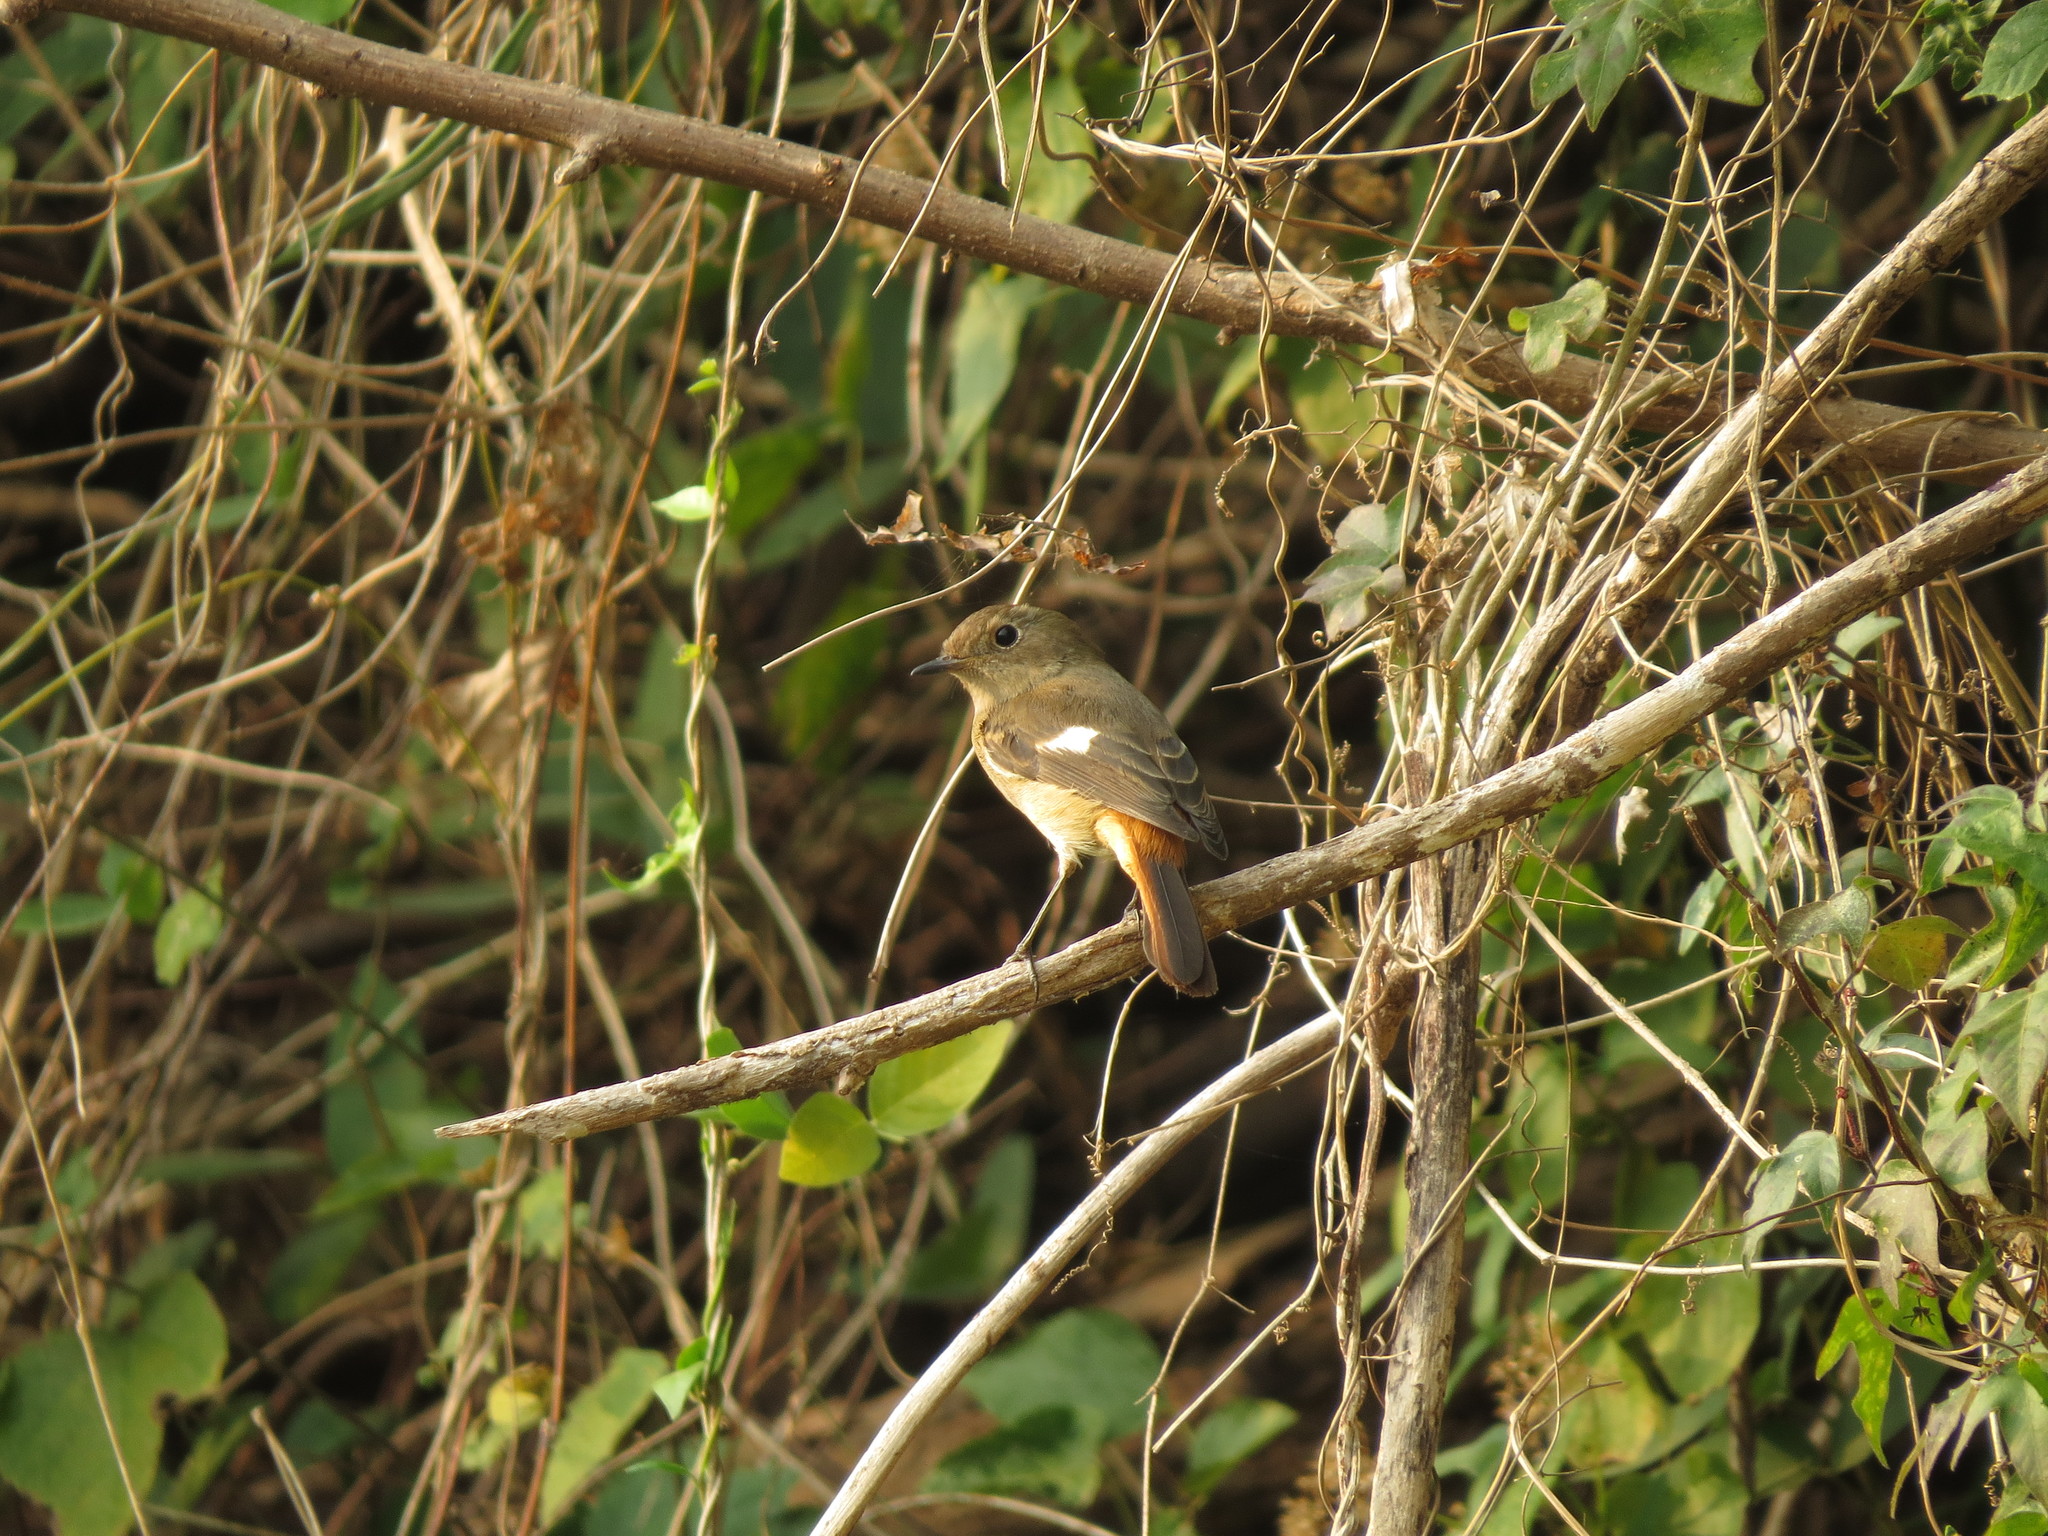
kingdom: Animalia
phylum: Chordata
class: Aves
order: Passeriformes
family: Muscicapidae
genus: Phoenicurus
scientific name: Phoenicurus auroreus
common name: Daurian redstart
